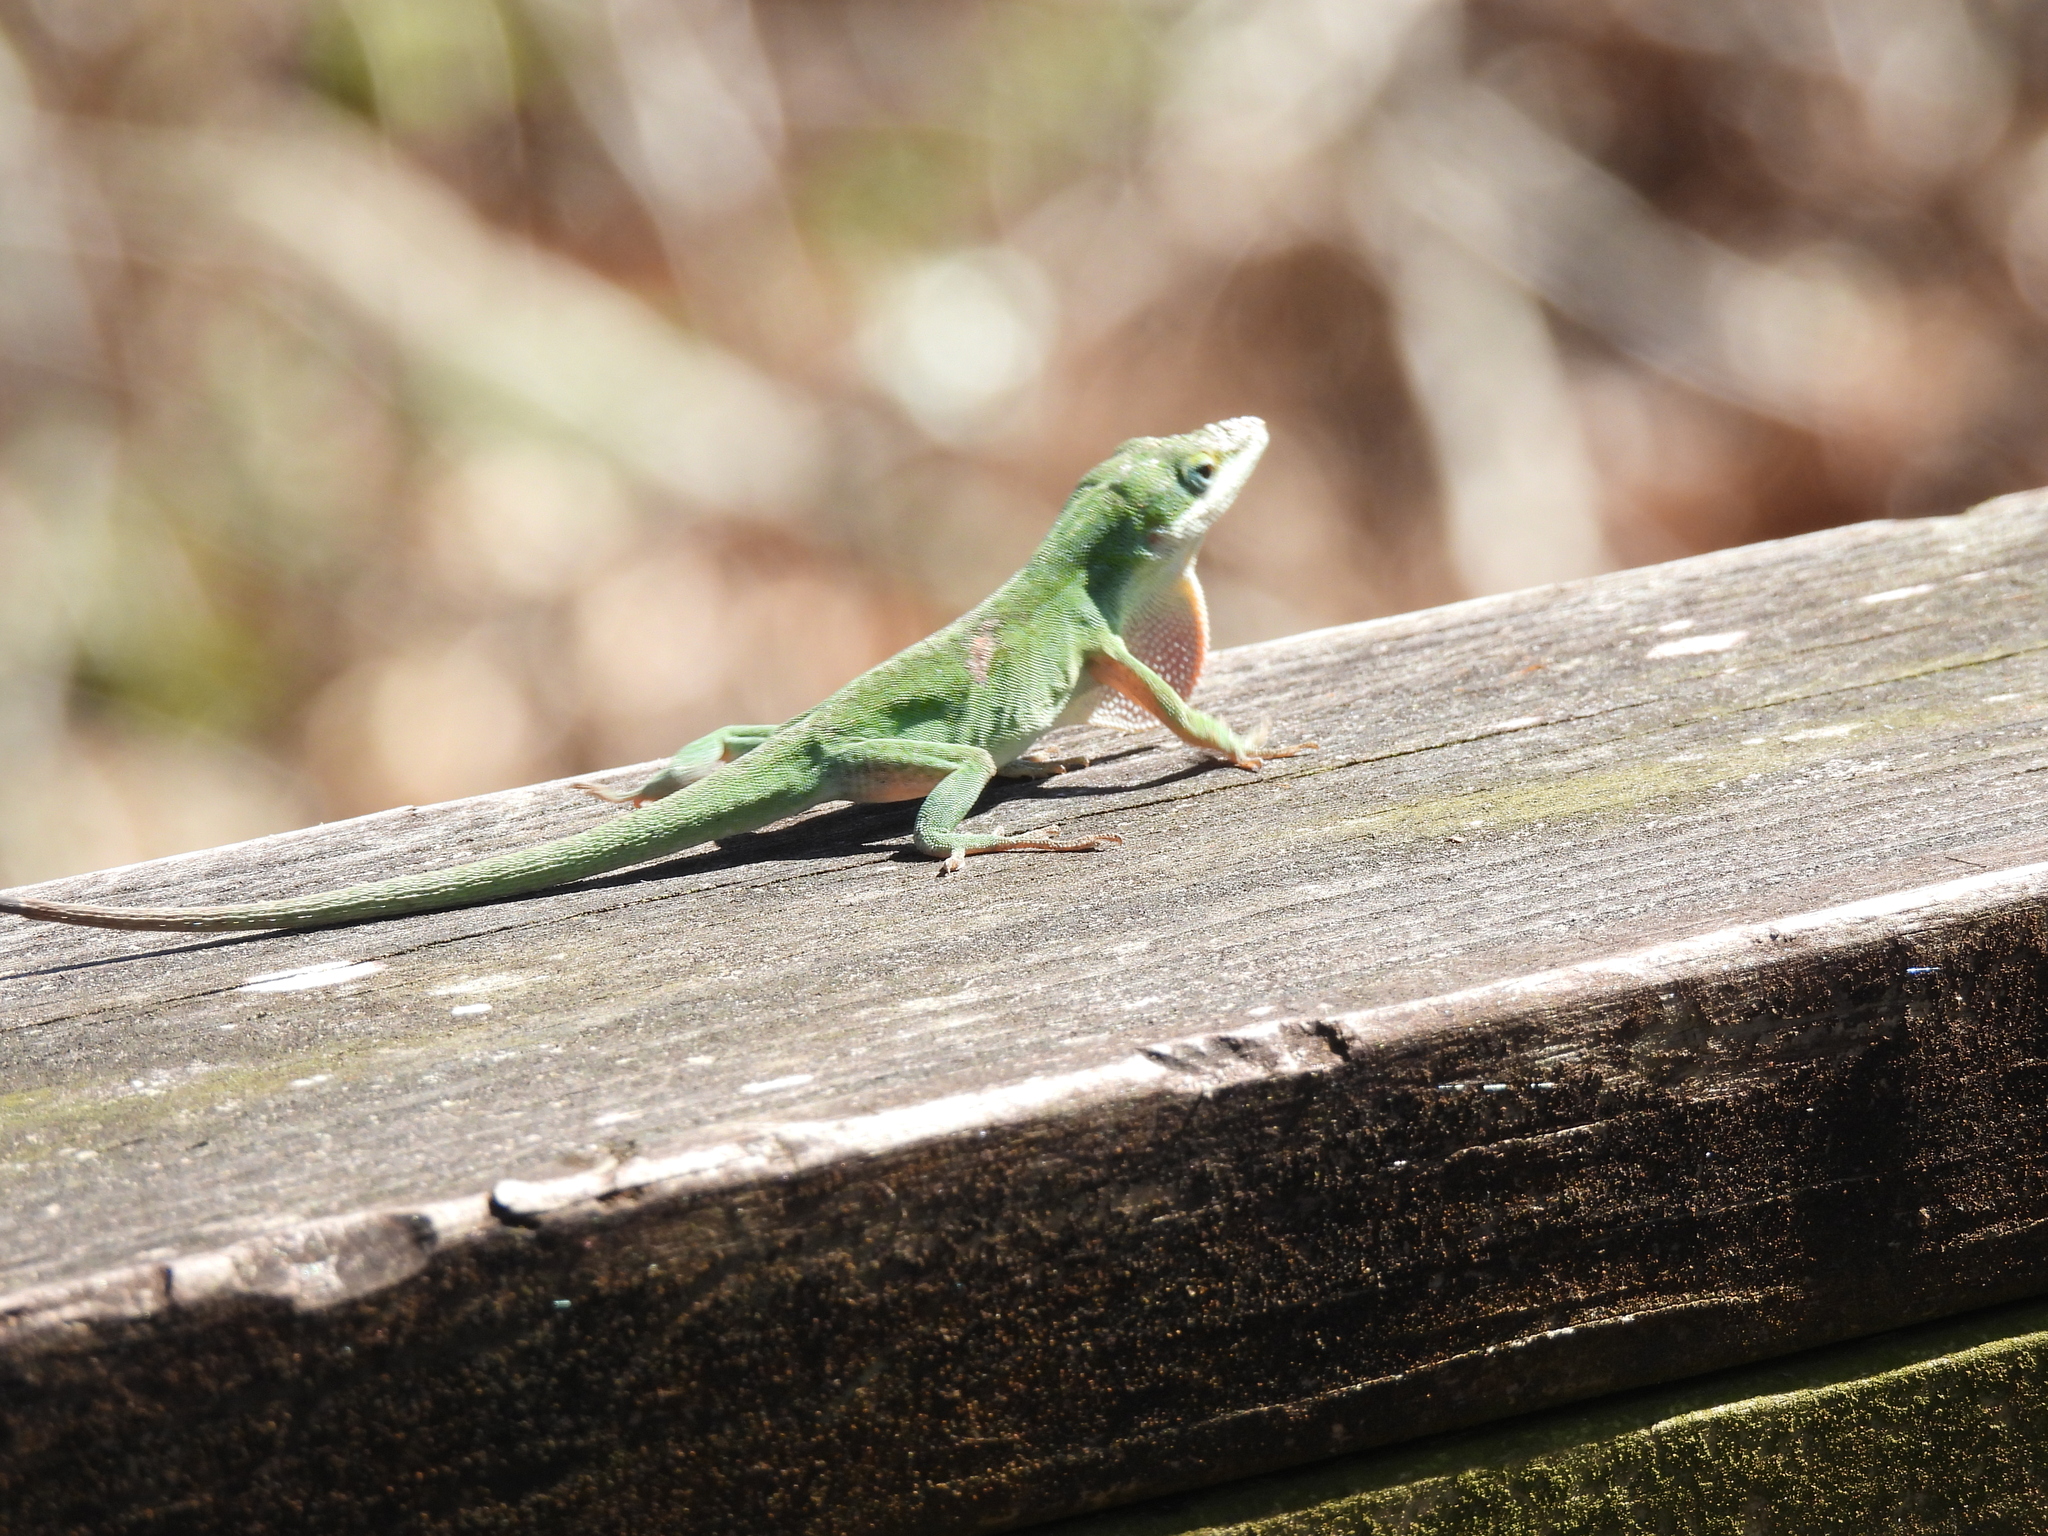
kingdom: Animalia
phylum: Chordata
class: Squamata
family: Dactyloidae
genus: Anolis
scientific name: Anolis carolinensis
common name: Green anole
